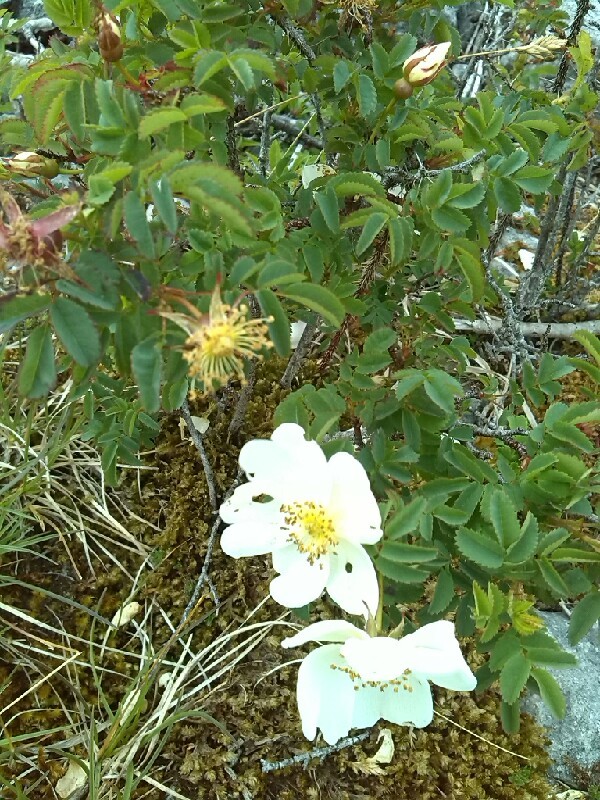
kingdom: Plantae
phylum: Tracheophyta
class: Magnoliopsida
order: Rosales
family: Rosaceae
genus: Rosa
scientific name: Rosa spinosissima
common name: Burnet rose
